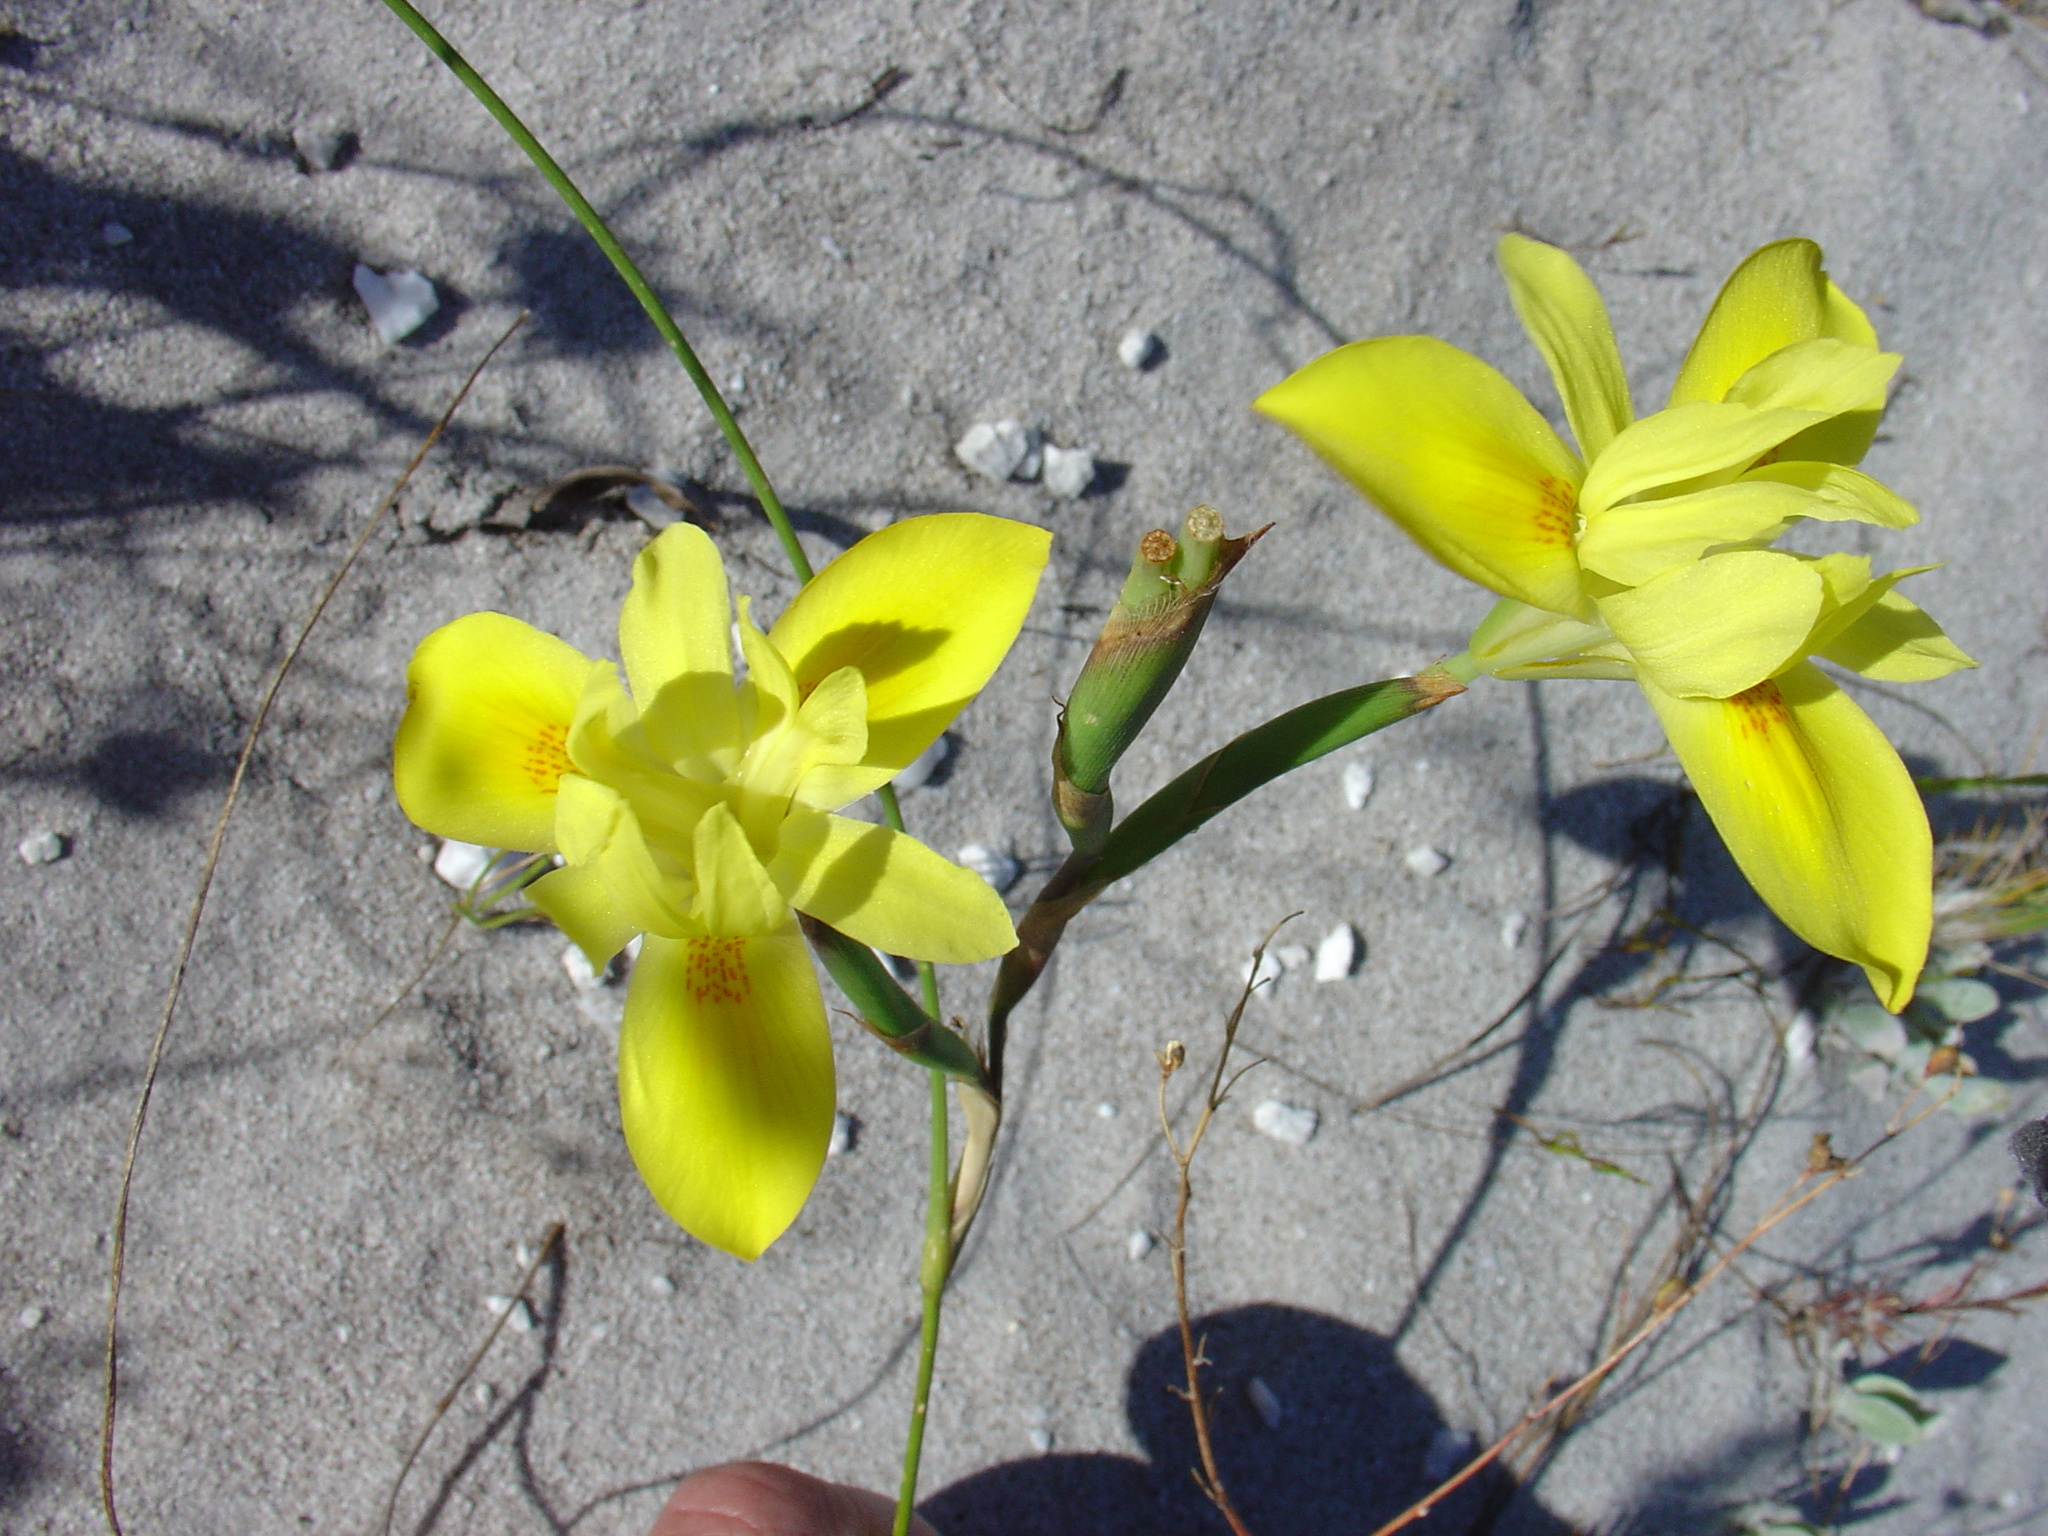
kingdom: Plantae
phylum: Tracheophyta
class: Liliopsida
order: Asparagales
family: Iridaceae
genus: Moraea
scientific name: Moraea fugax
